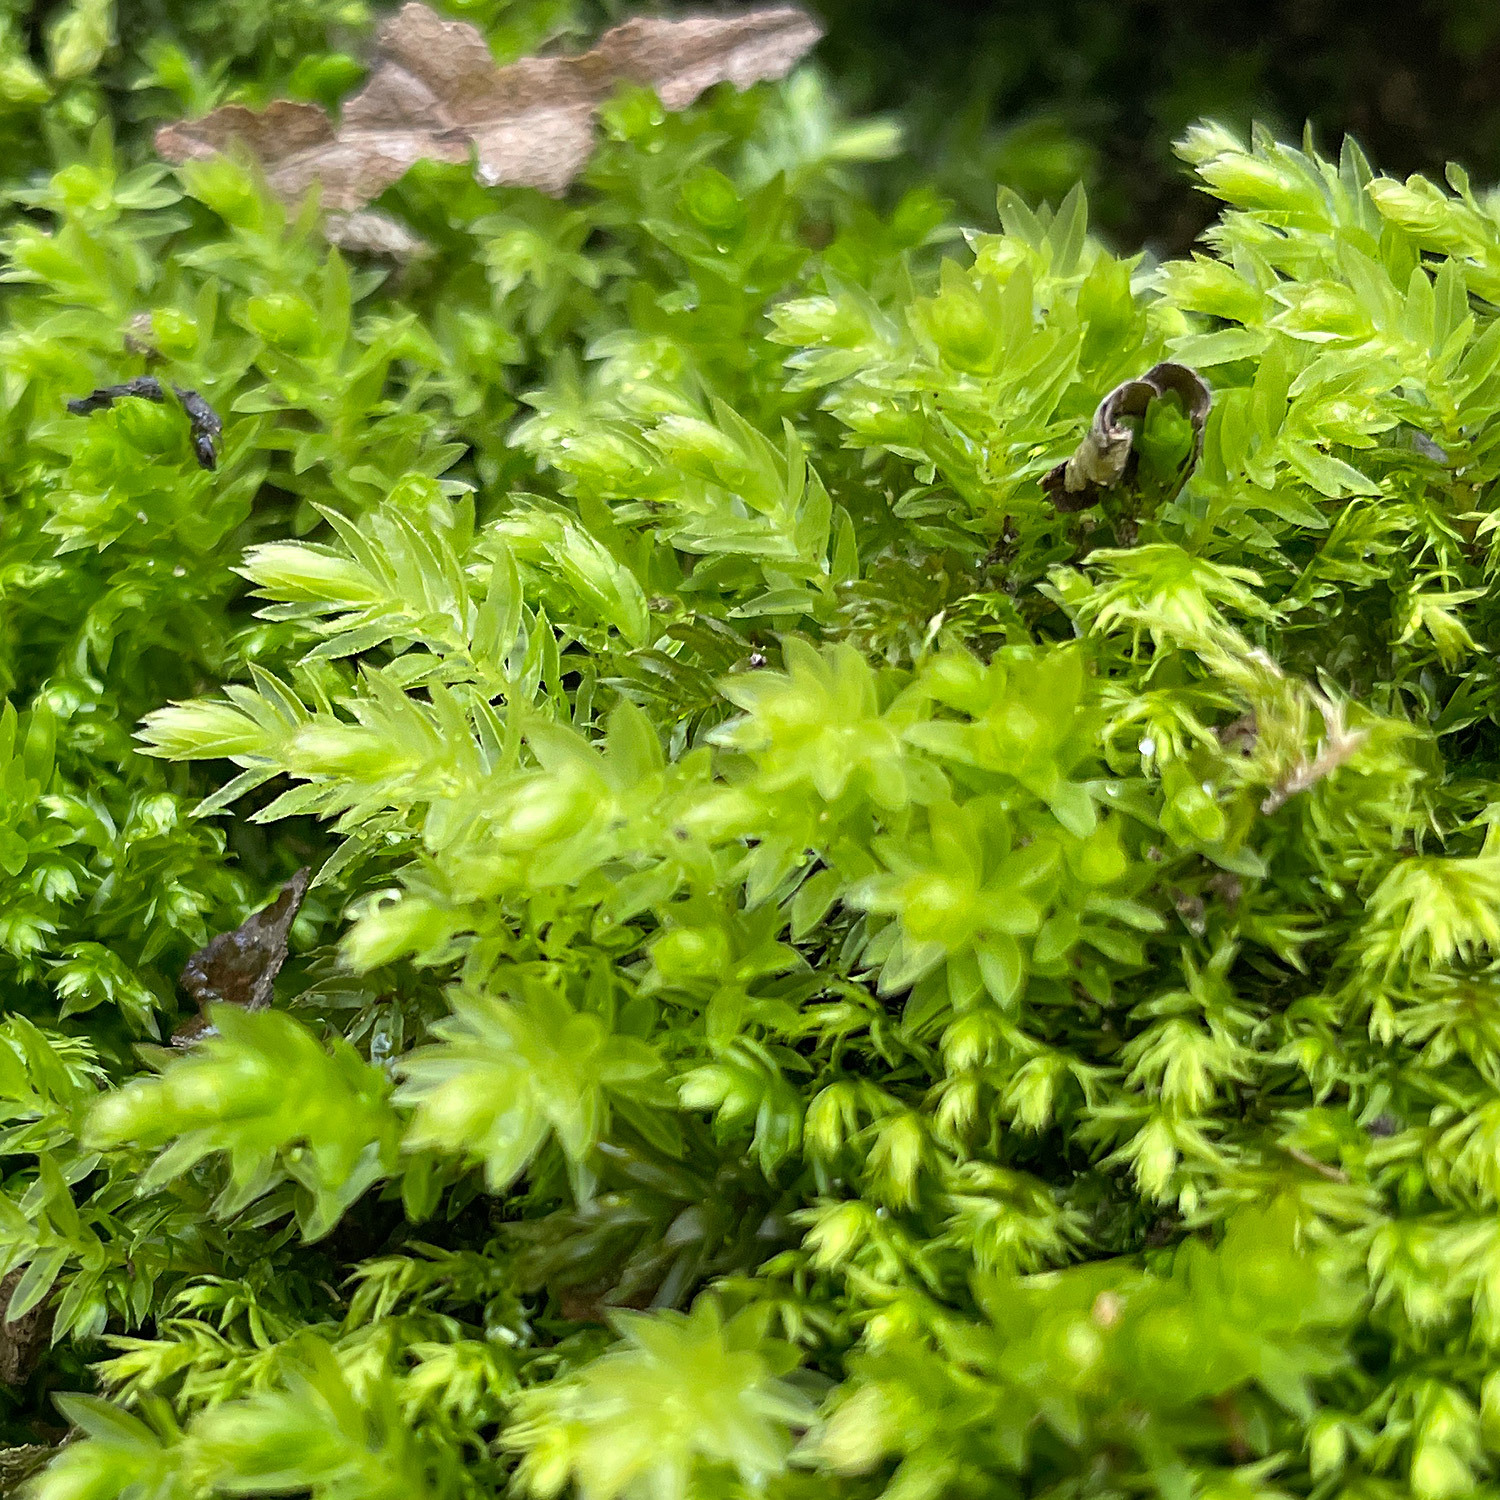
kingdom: Plantae
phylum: Bryophyta
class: Bryopsida
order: Bryales
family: Mniaceae
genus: Mnium
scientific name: Mnium hornum
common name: Swan's-neck leafy moss
